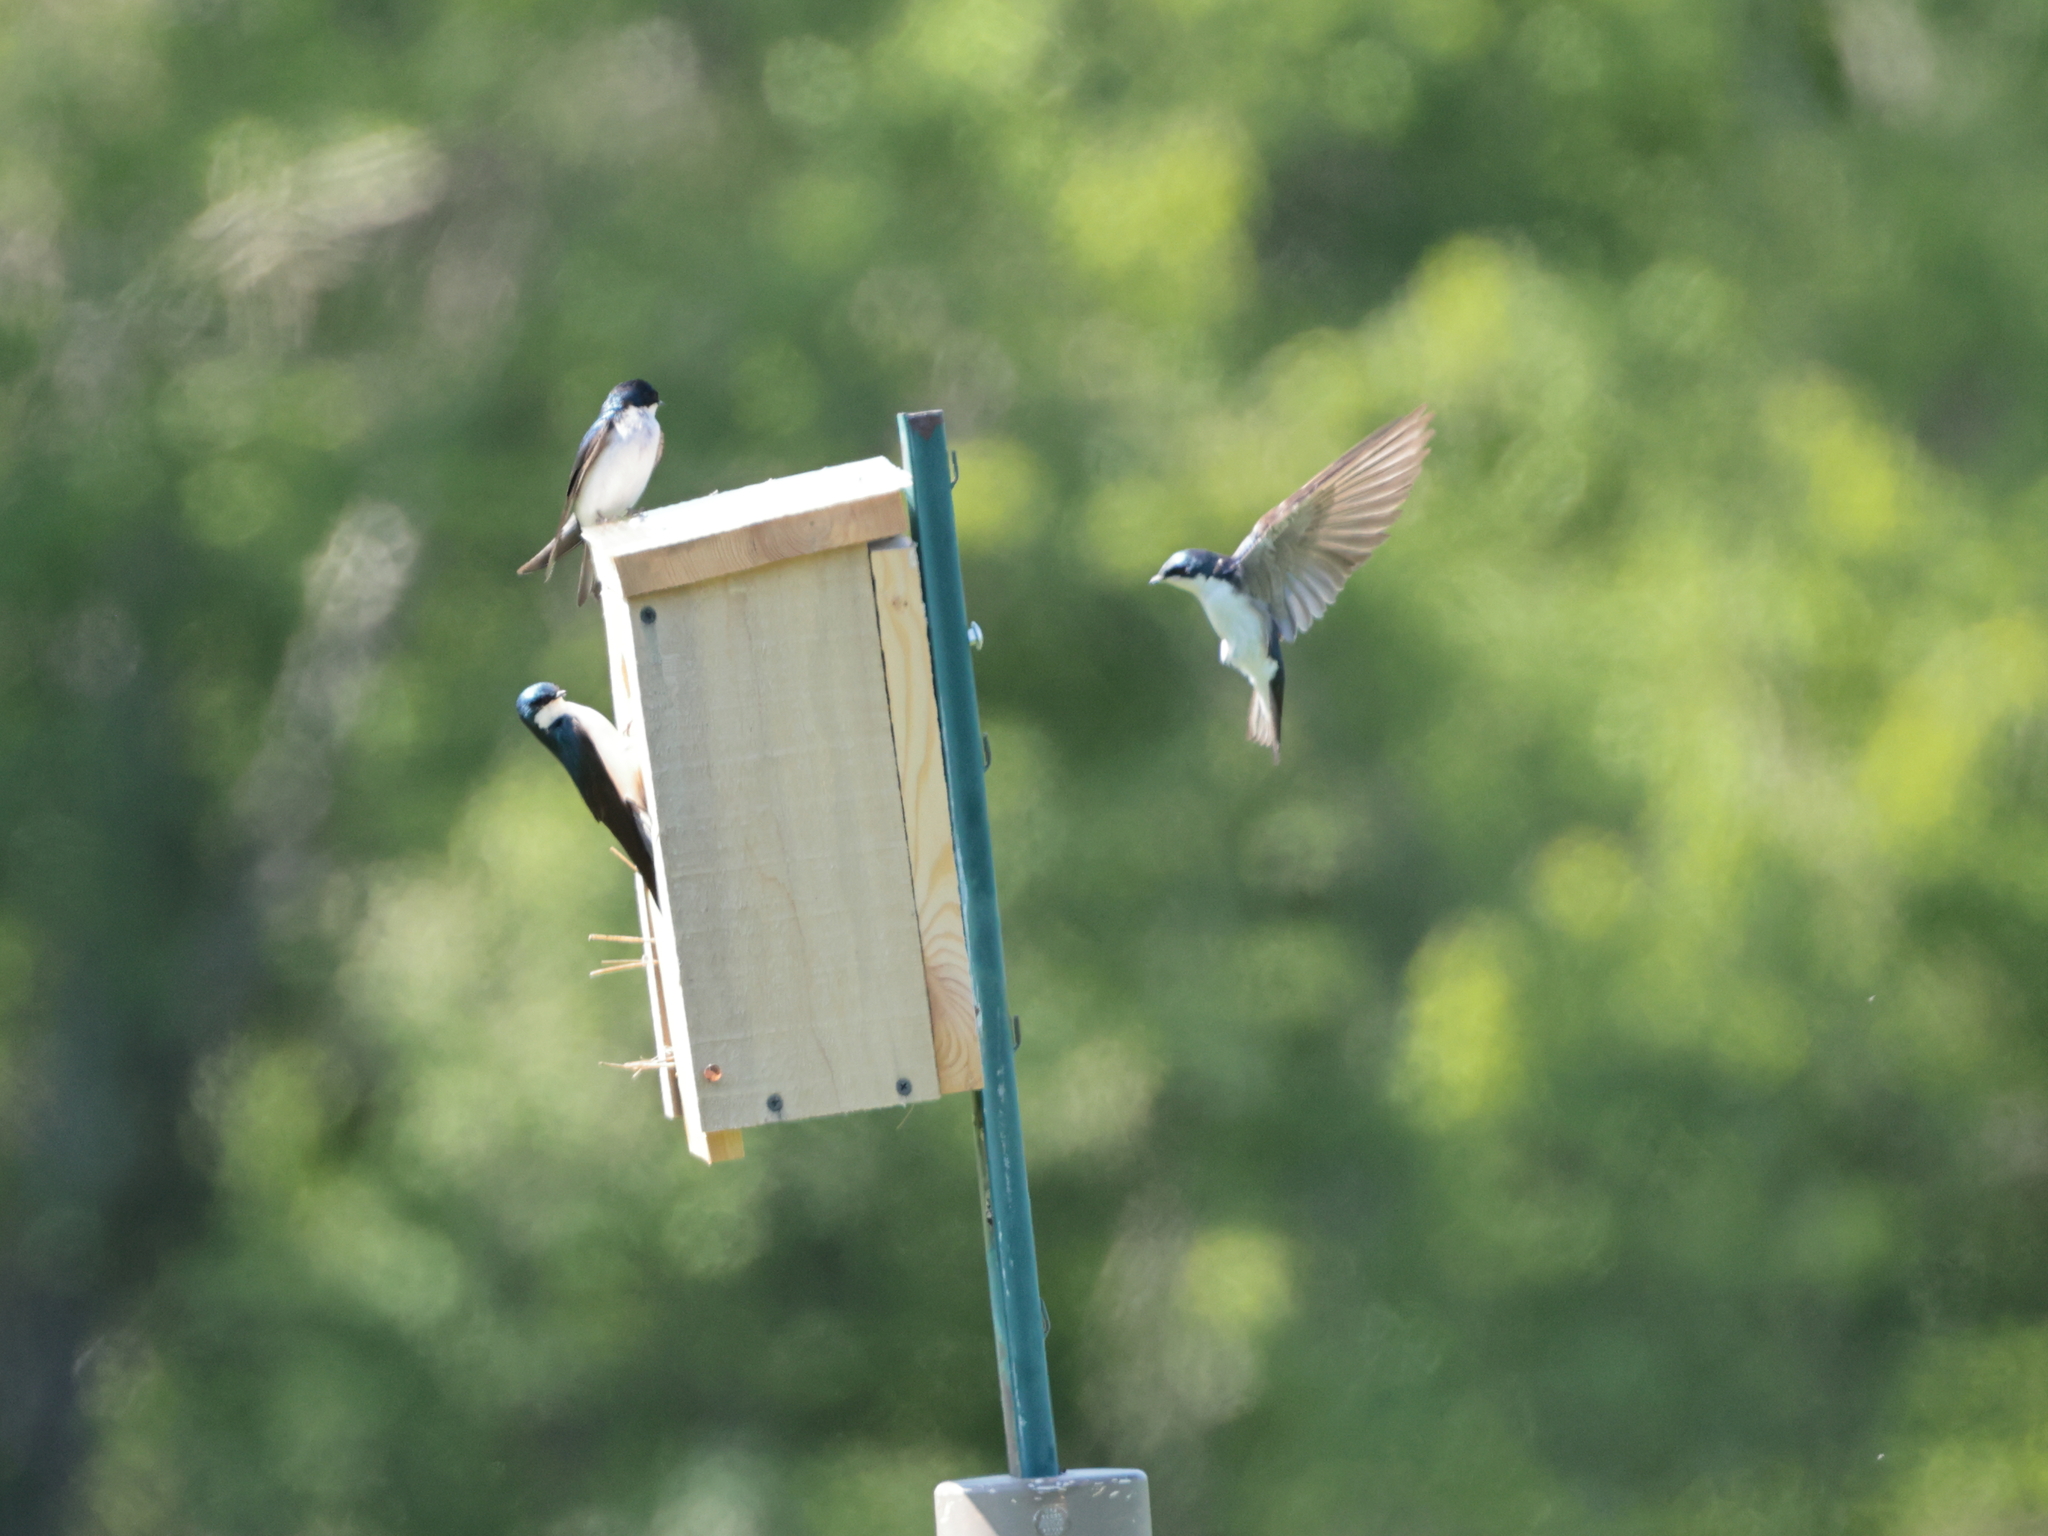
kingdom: Animalia
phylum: Chordata
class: Aves
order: Passeriformes
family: Hirundinidae
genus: Tachycineta
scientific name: Tachycineta bicolor
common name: Tree swallow
